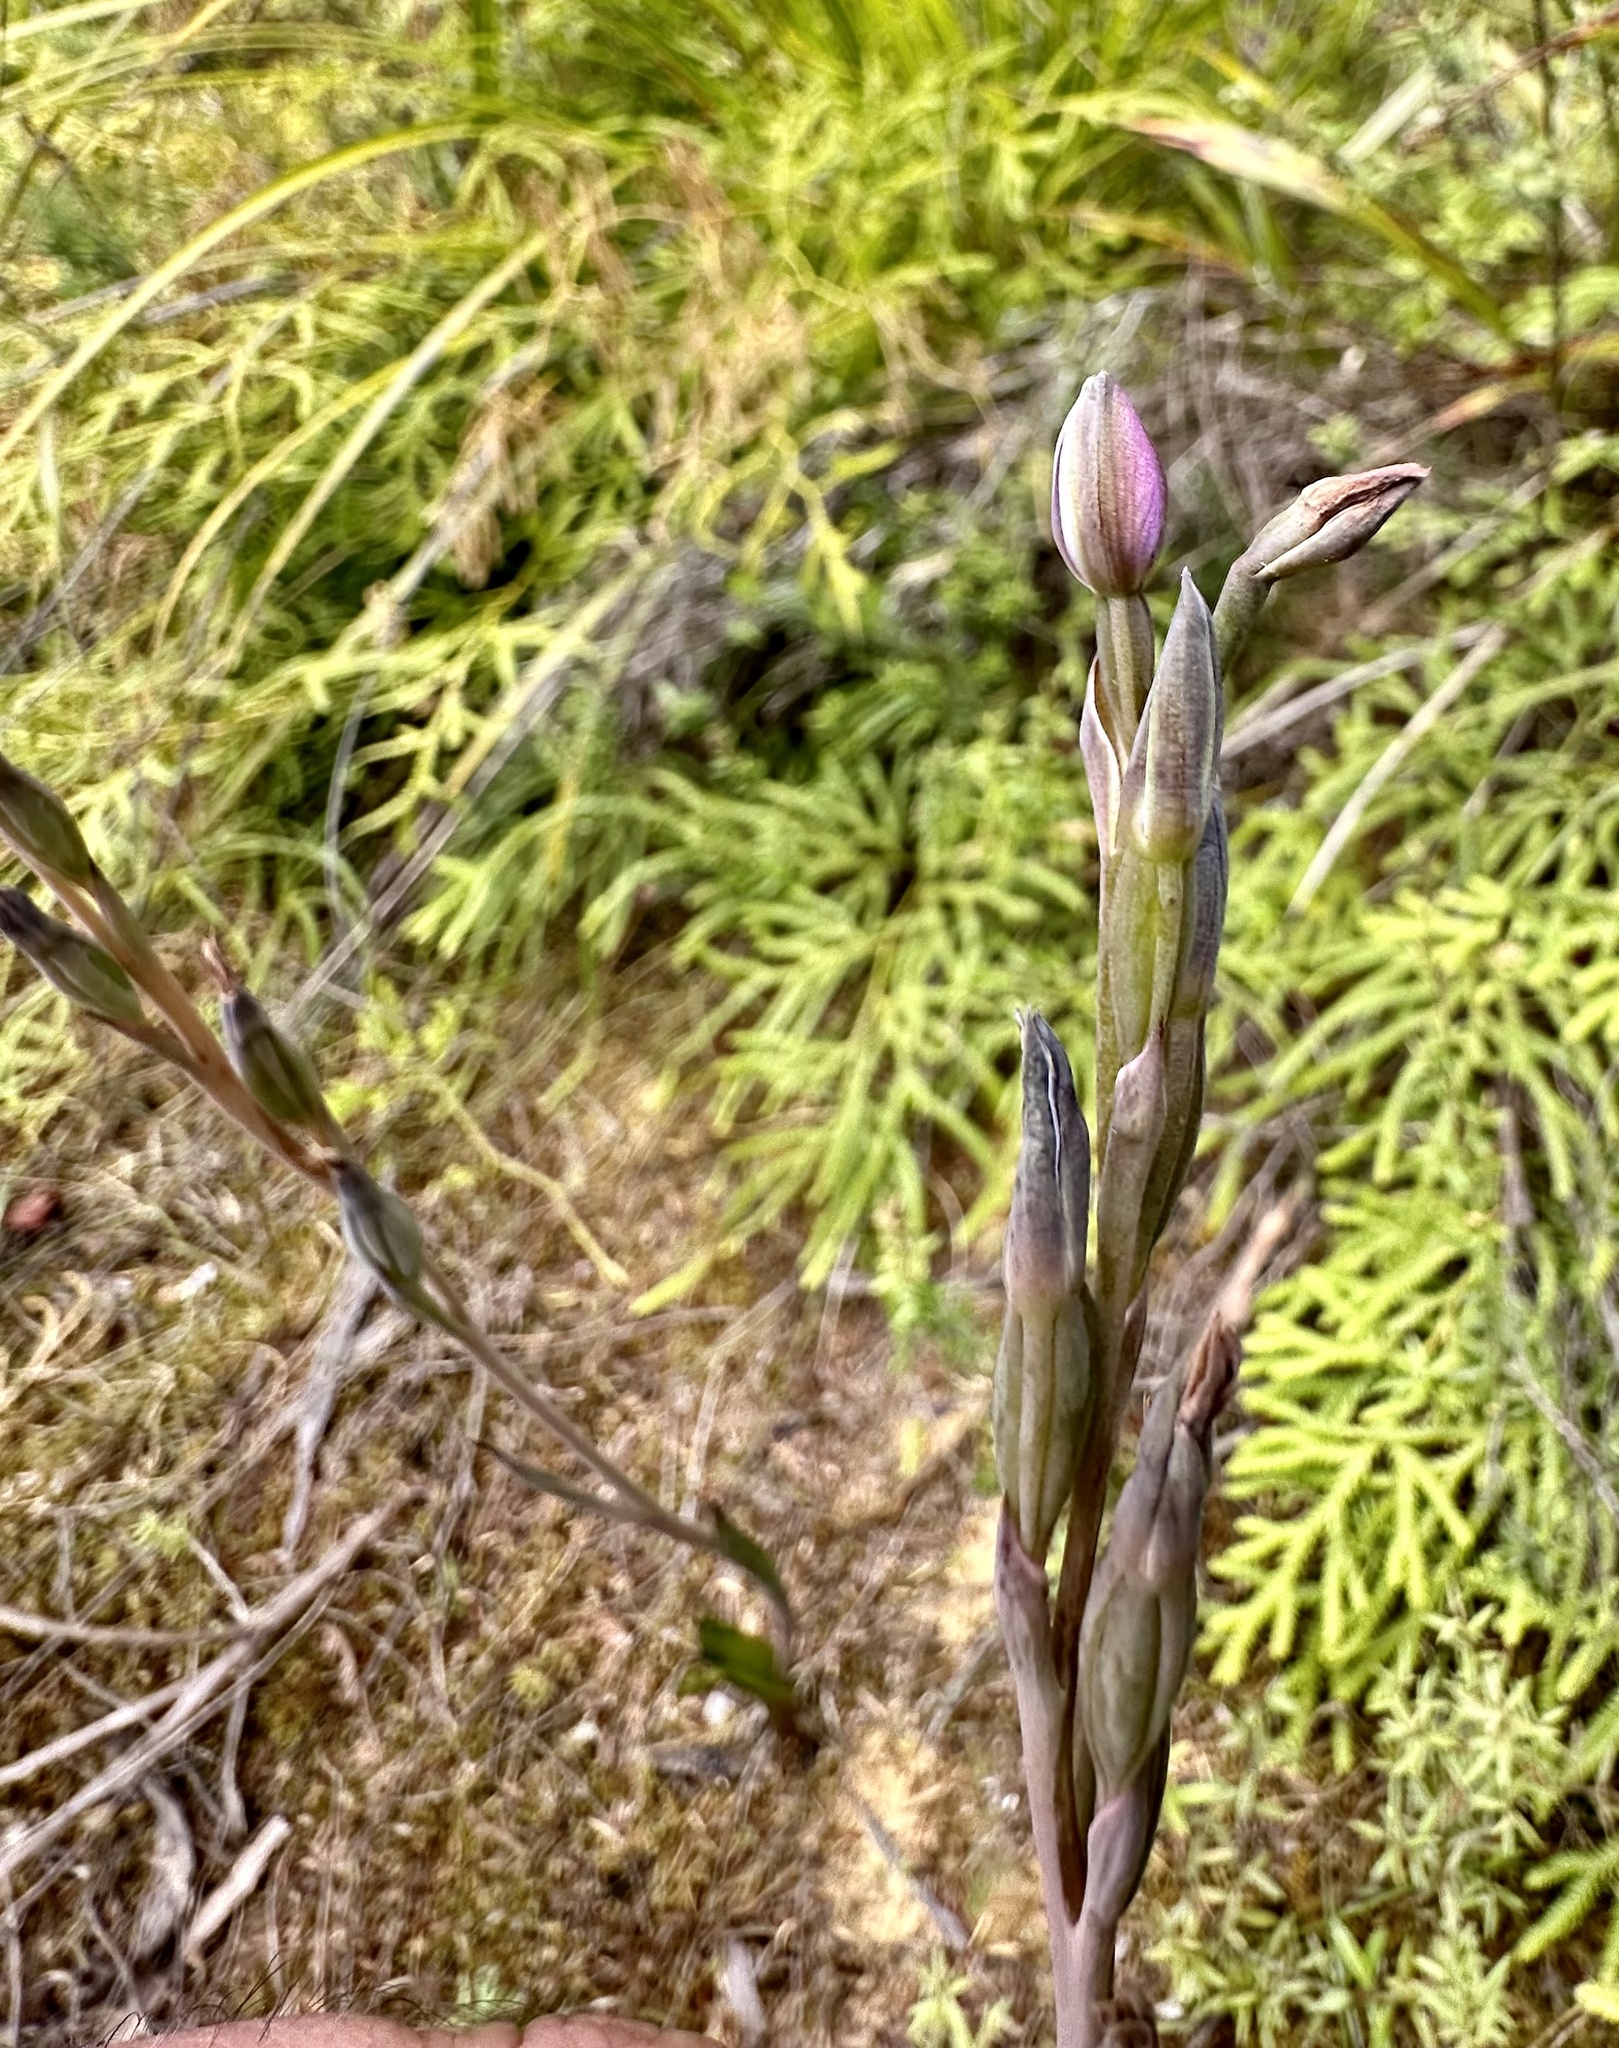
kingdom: Plantae
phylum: Tracheophyta
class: Liliopsida
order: Asparagales
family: Orchidaceae
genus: Thelymitra
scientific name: Thelymitra hatchii
